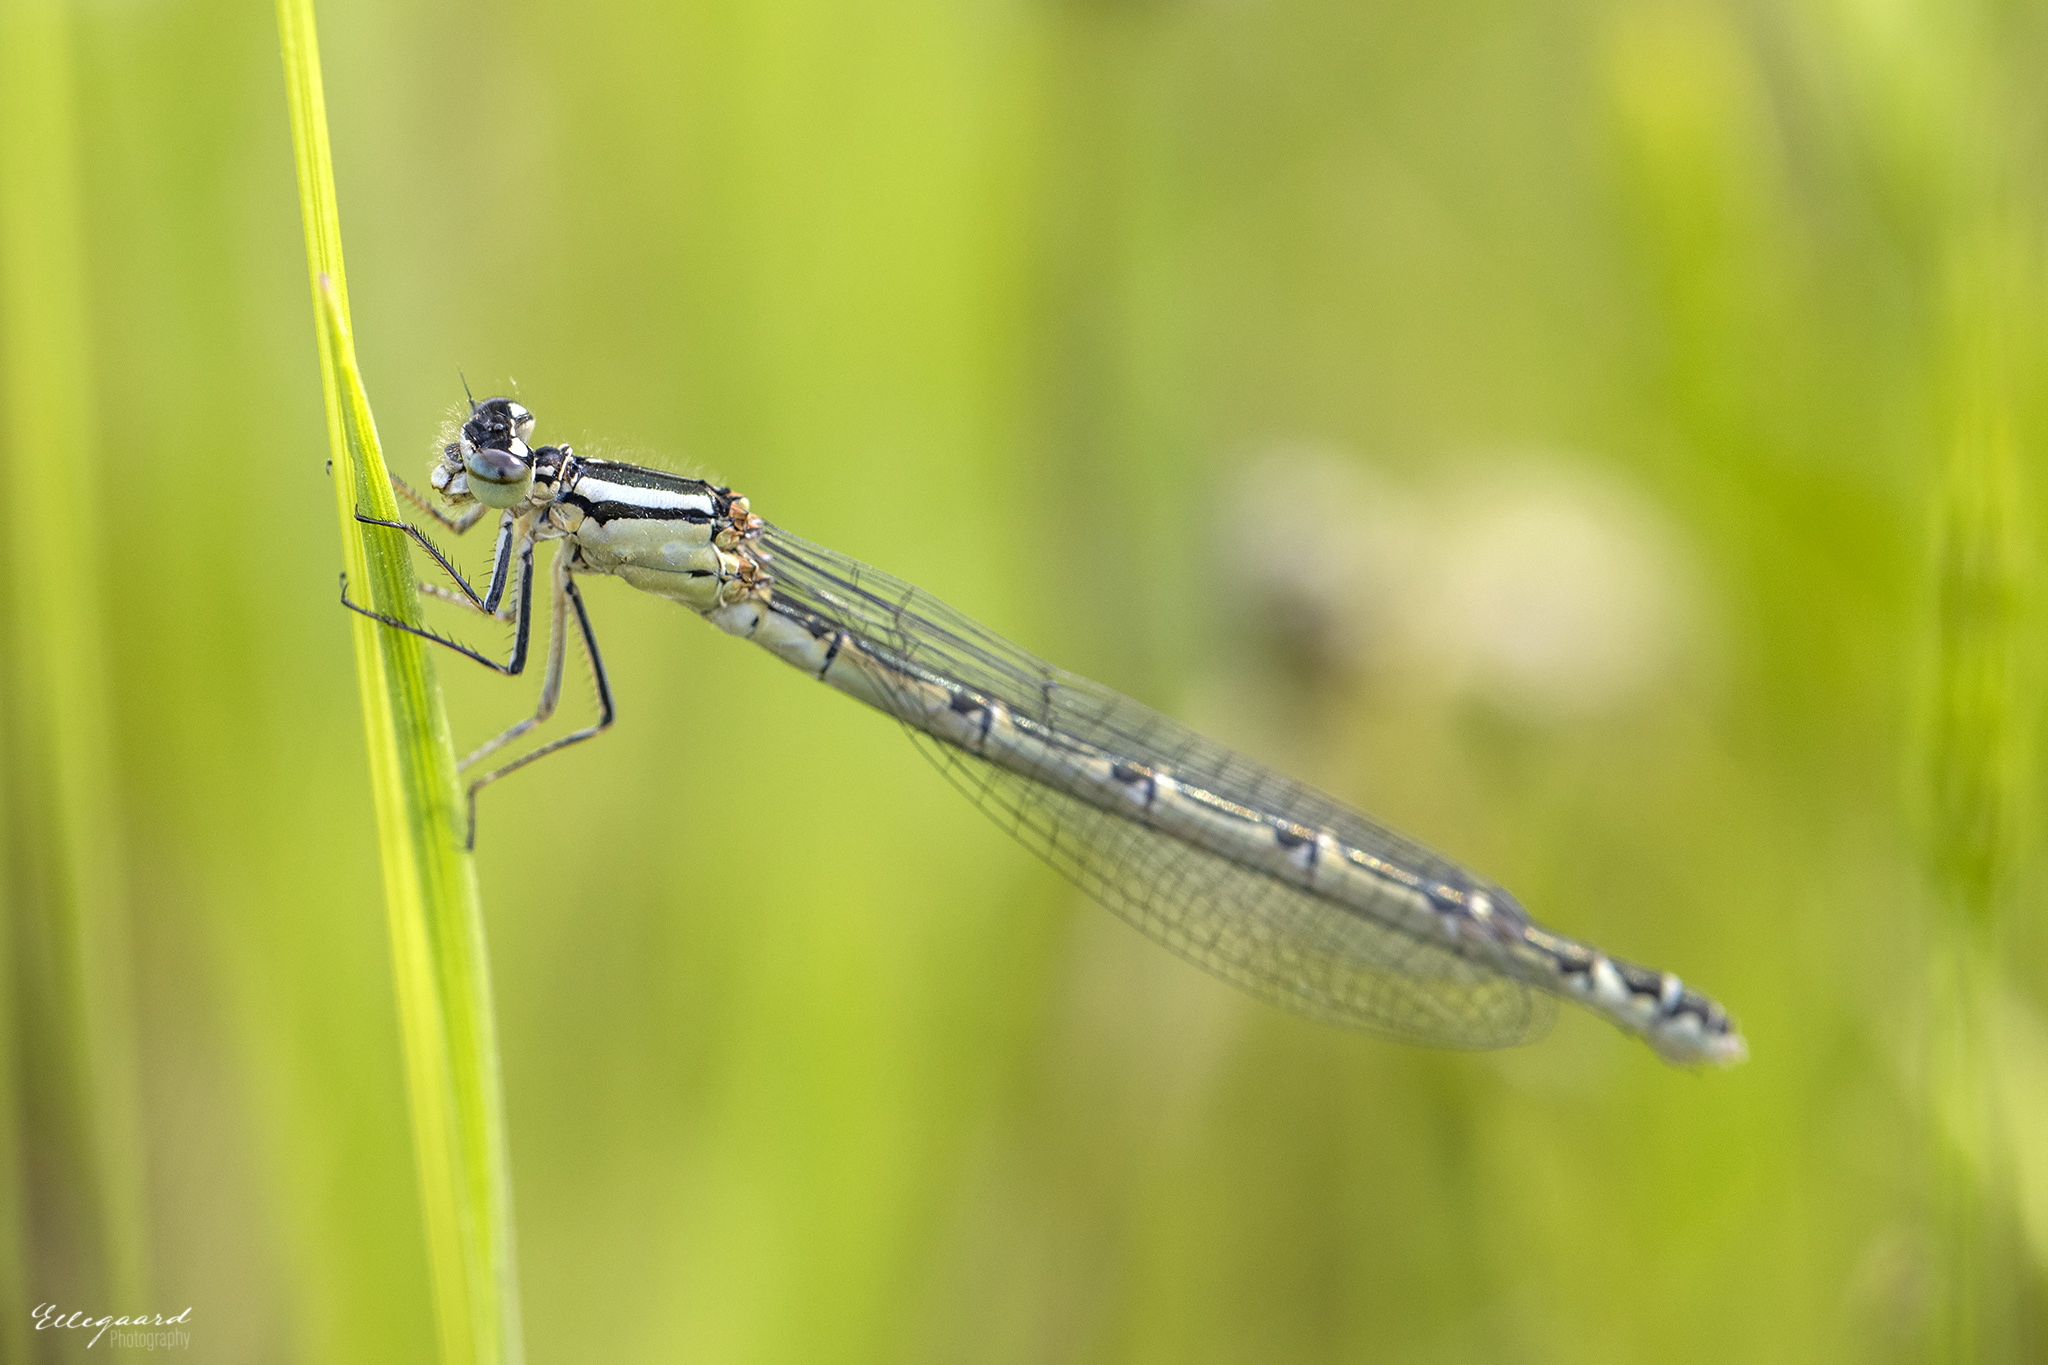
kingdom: Animalia
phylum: Arthropoda
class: Insecta
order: Odonata
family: Coenagrionidae
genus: Enallagma
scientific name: Enallagma cyathigerum
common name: Common blue damselfly
